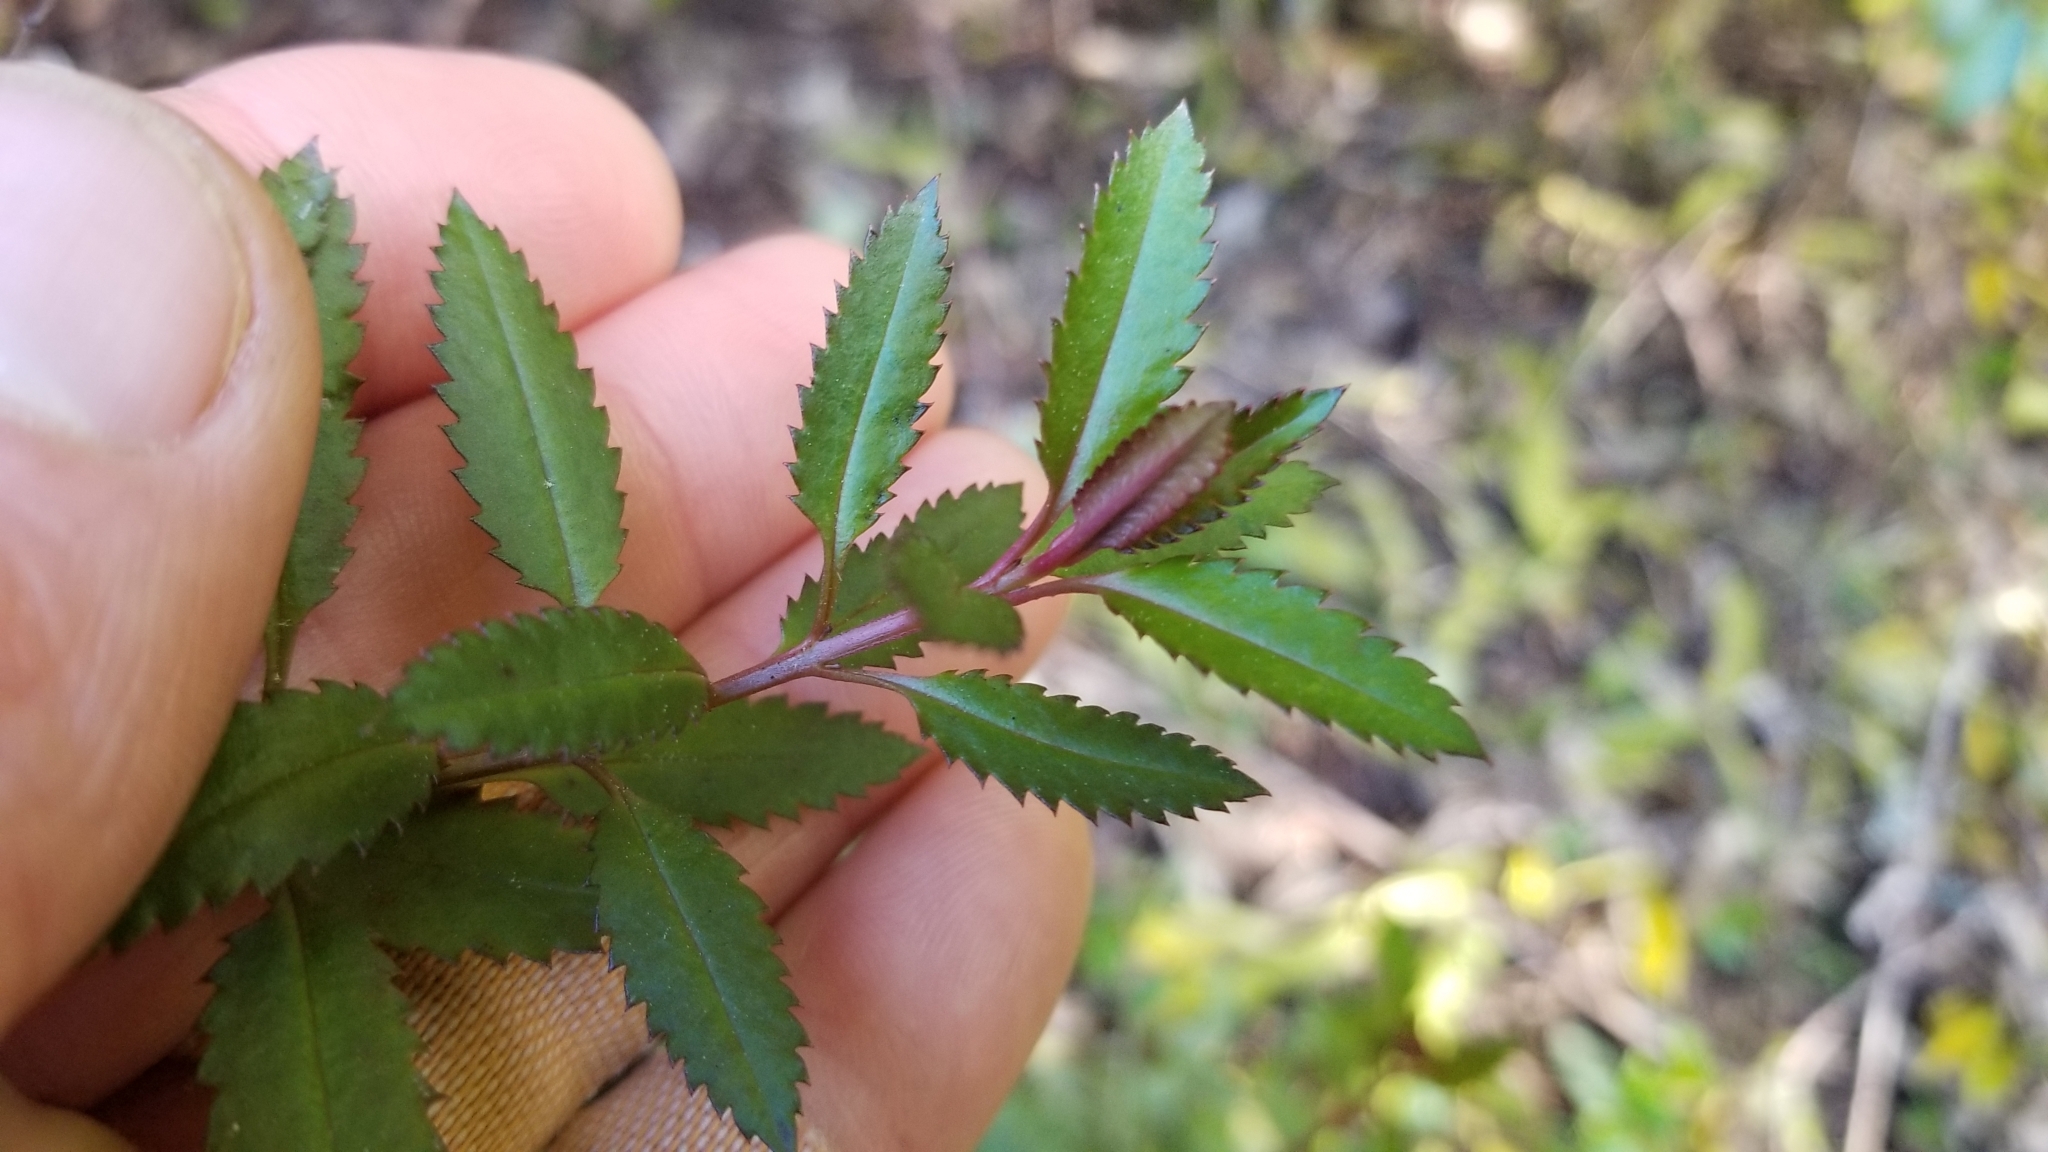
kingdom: Plantae
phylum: Tracheophyta
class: Magnoliopsida
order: Saxifragales
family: Haloragaceae
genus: Haloragis
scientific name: Haloragis erecta
